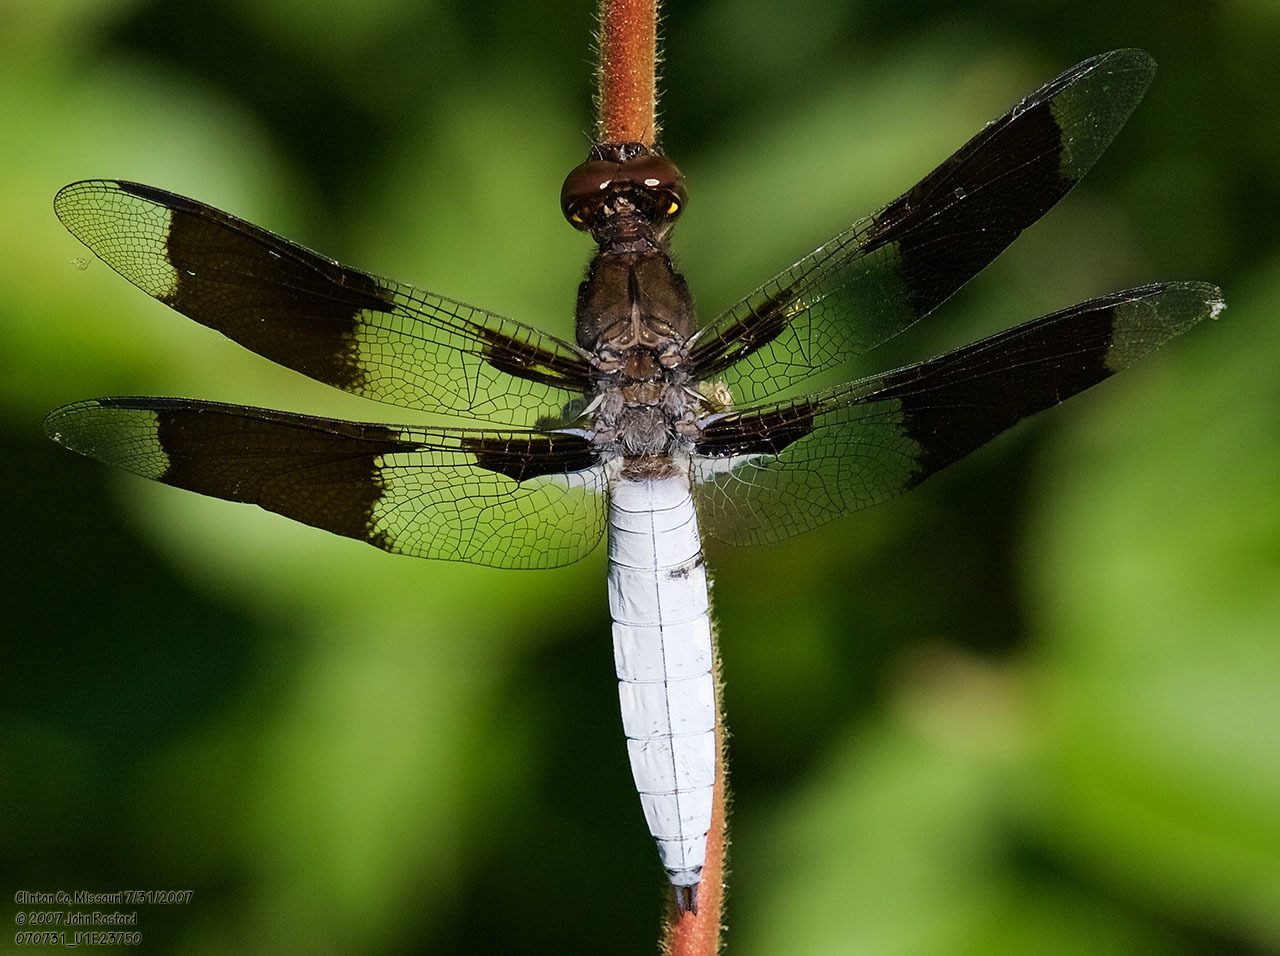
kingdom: Animalia
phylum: Arthropoda
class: Insecta
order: Odonata
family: Libellulidae
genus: Plathemis
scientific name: Plathemis lydia
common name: Common whitetail
